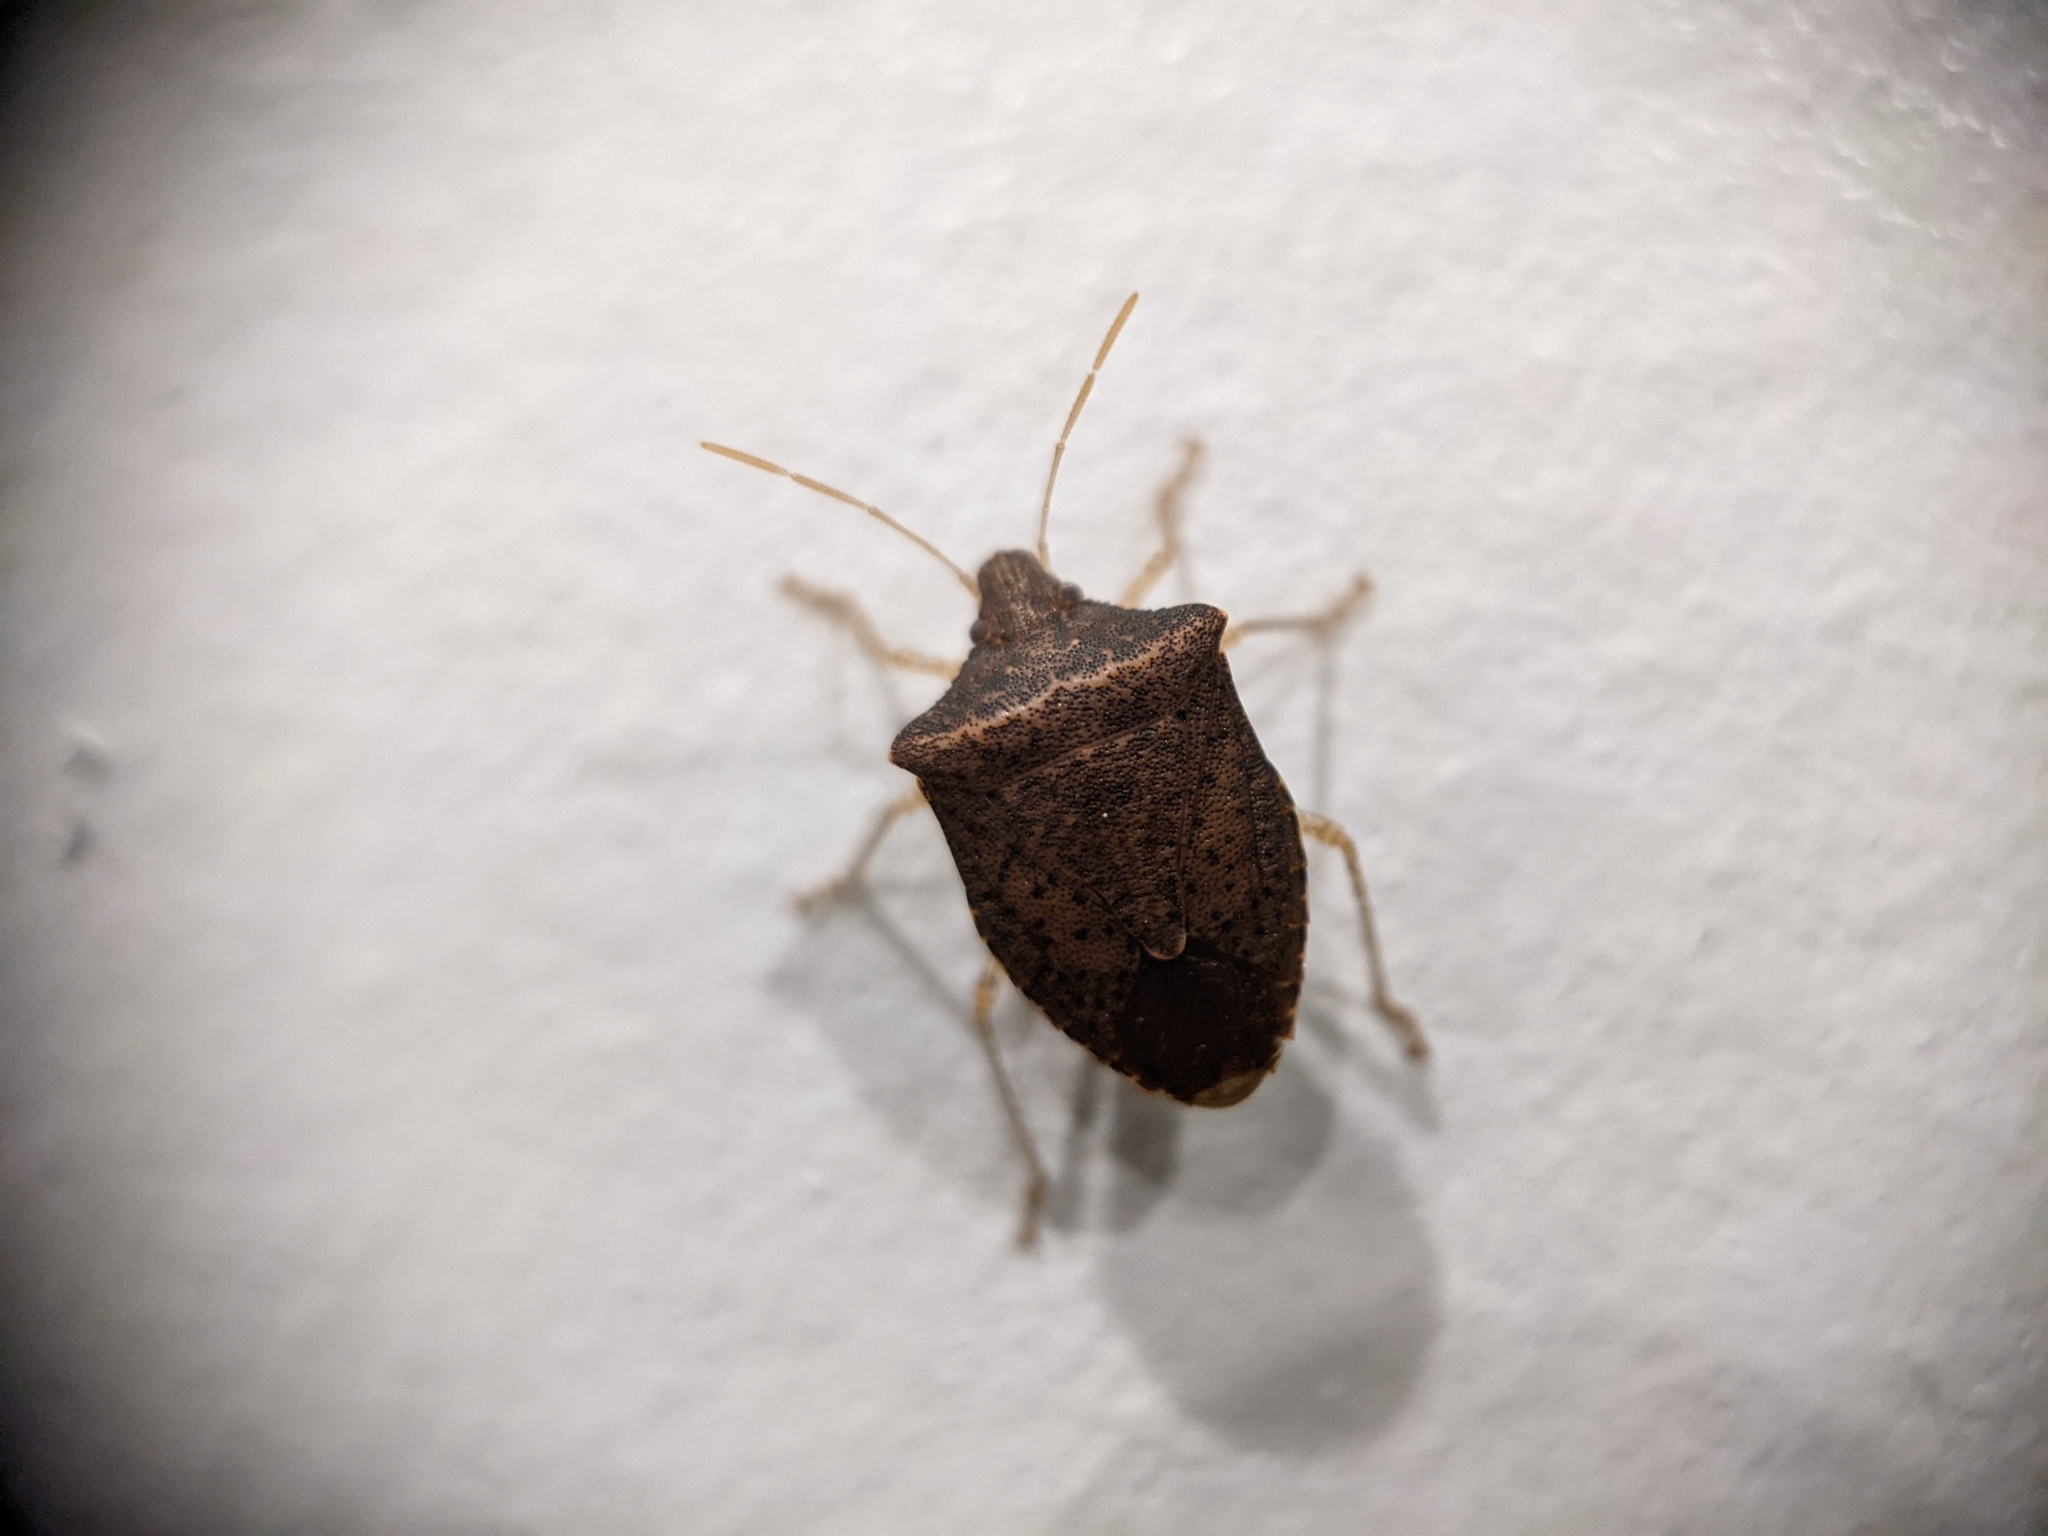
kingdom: Animalia
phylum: Arthropoda
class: Insecta
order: Hemiptera
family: Pentatomidae
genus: Euschistus
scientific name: Euschistus obscurus
